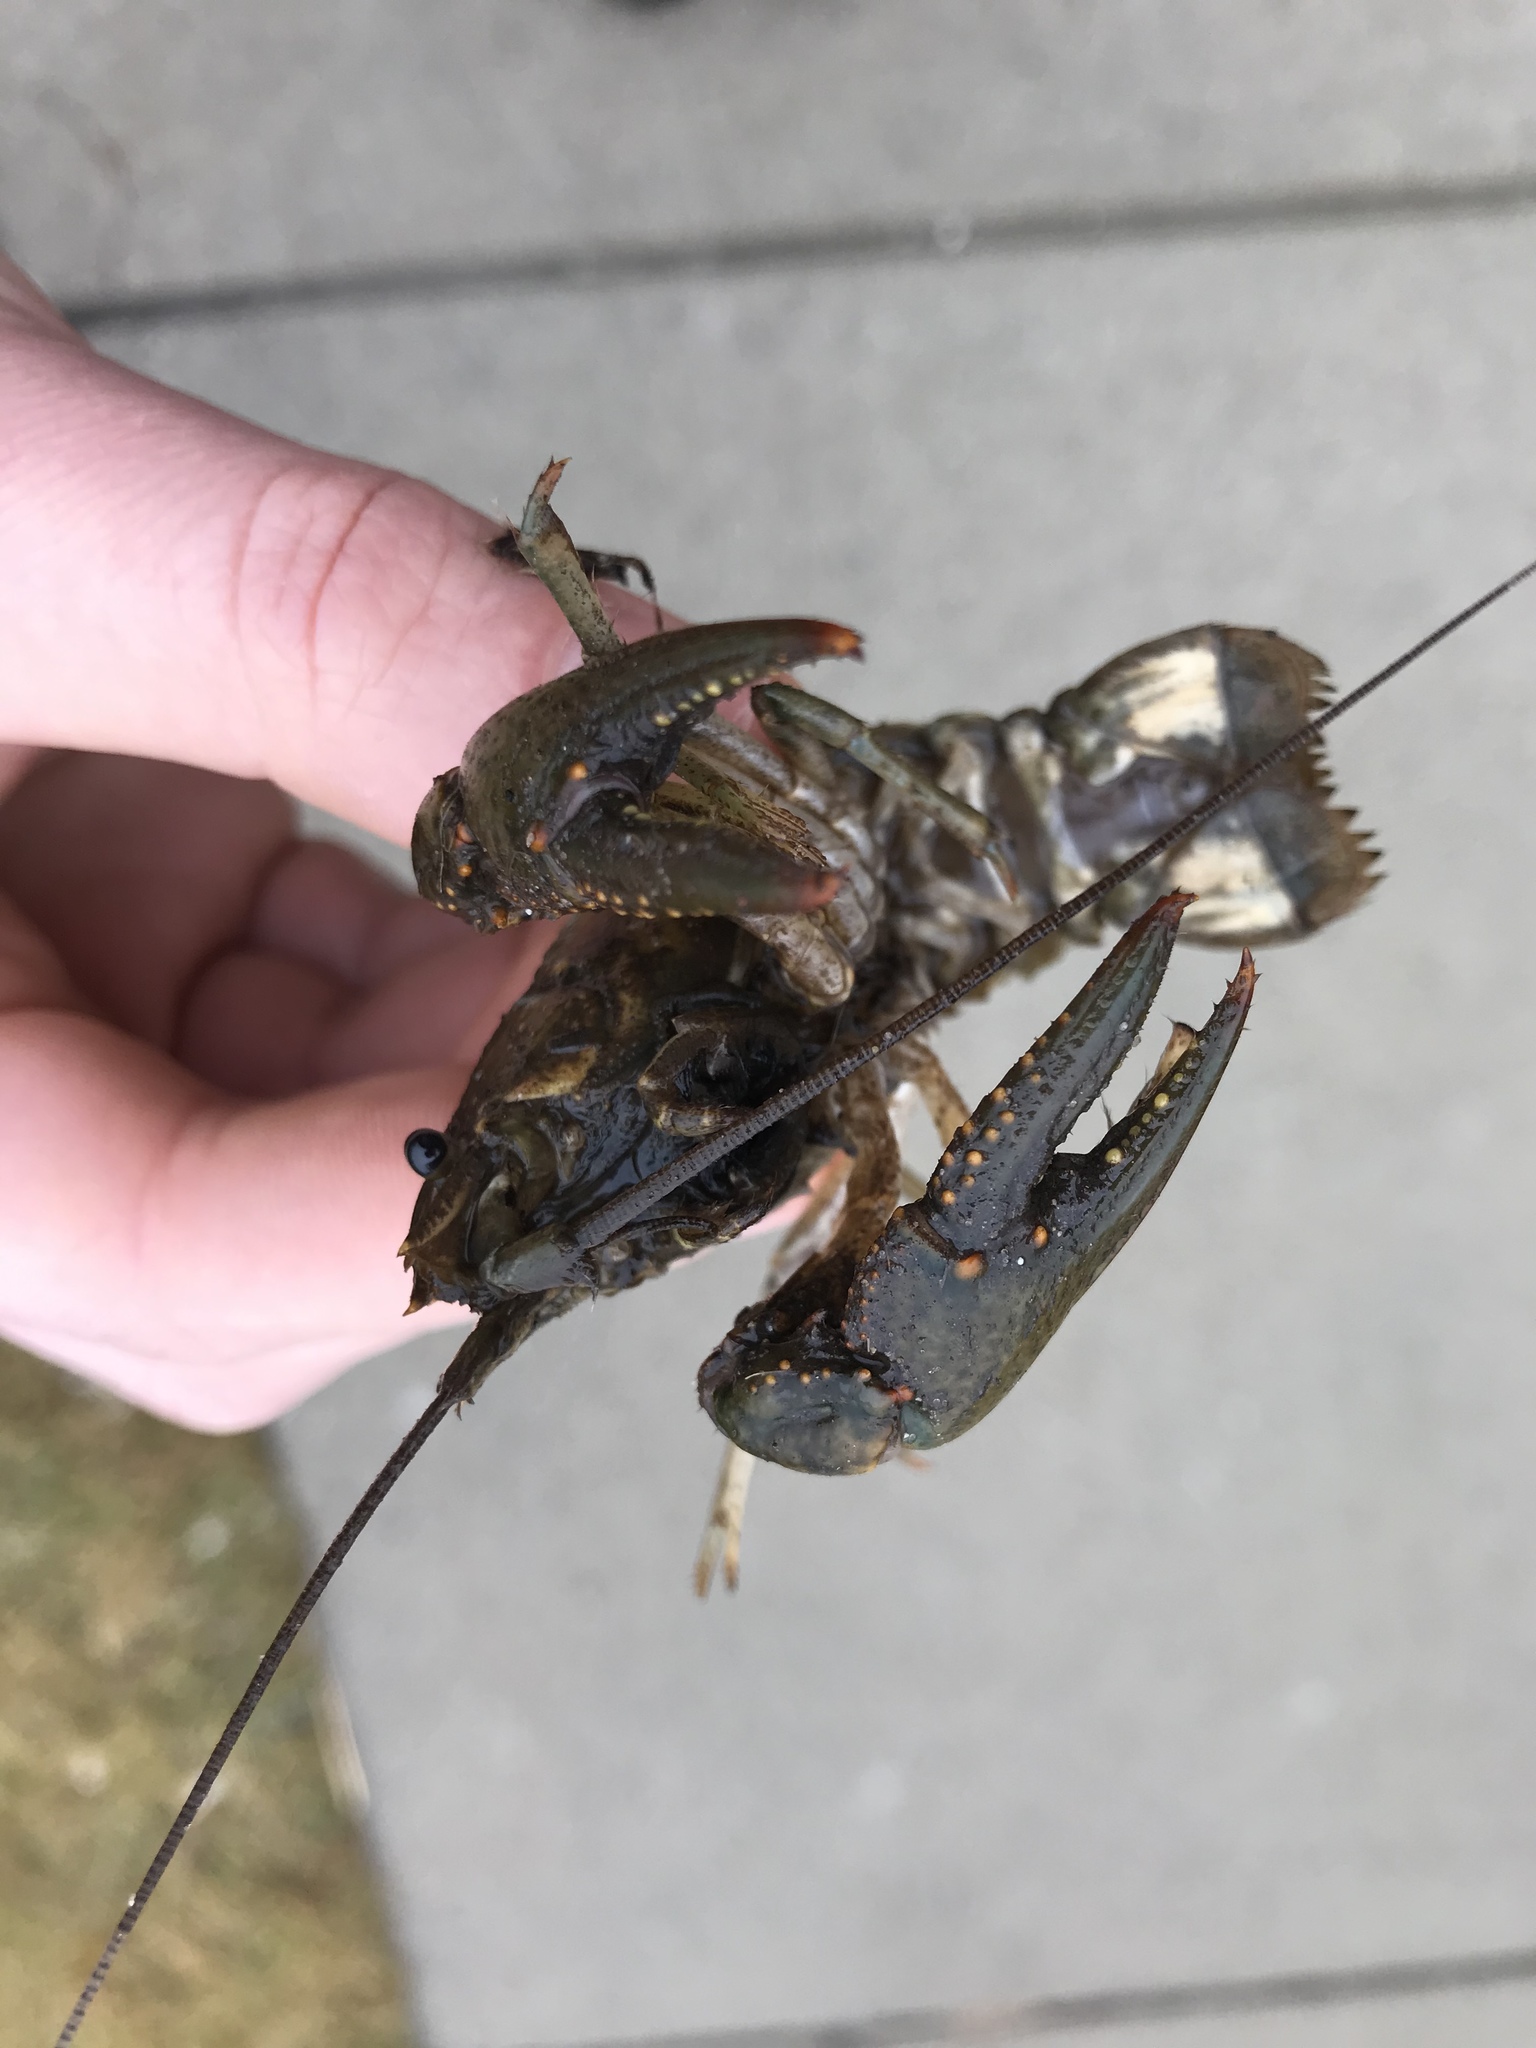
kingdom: Animalia
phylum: Arthropoda
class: Malacostraca
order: Decapoda
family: Cambaridae
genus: Faxonius
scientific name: Faxonius virilis
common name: Virile crayfish
